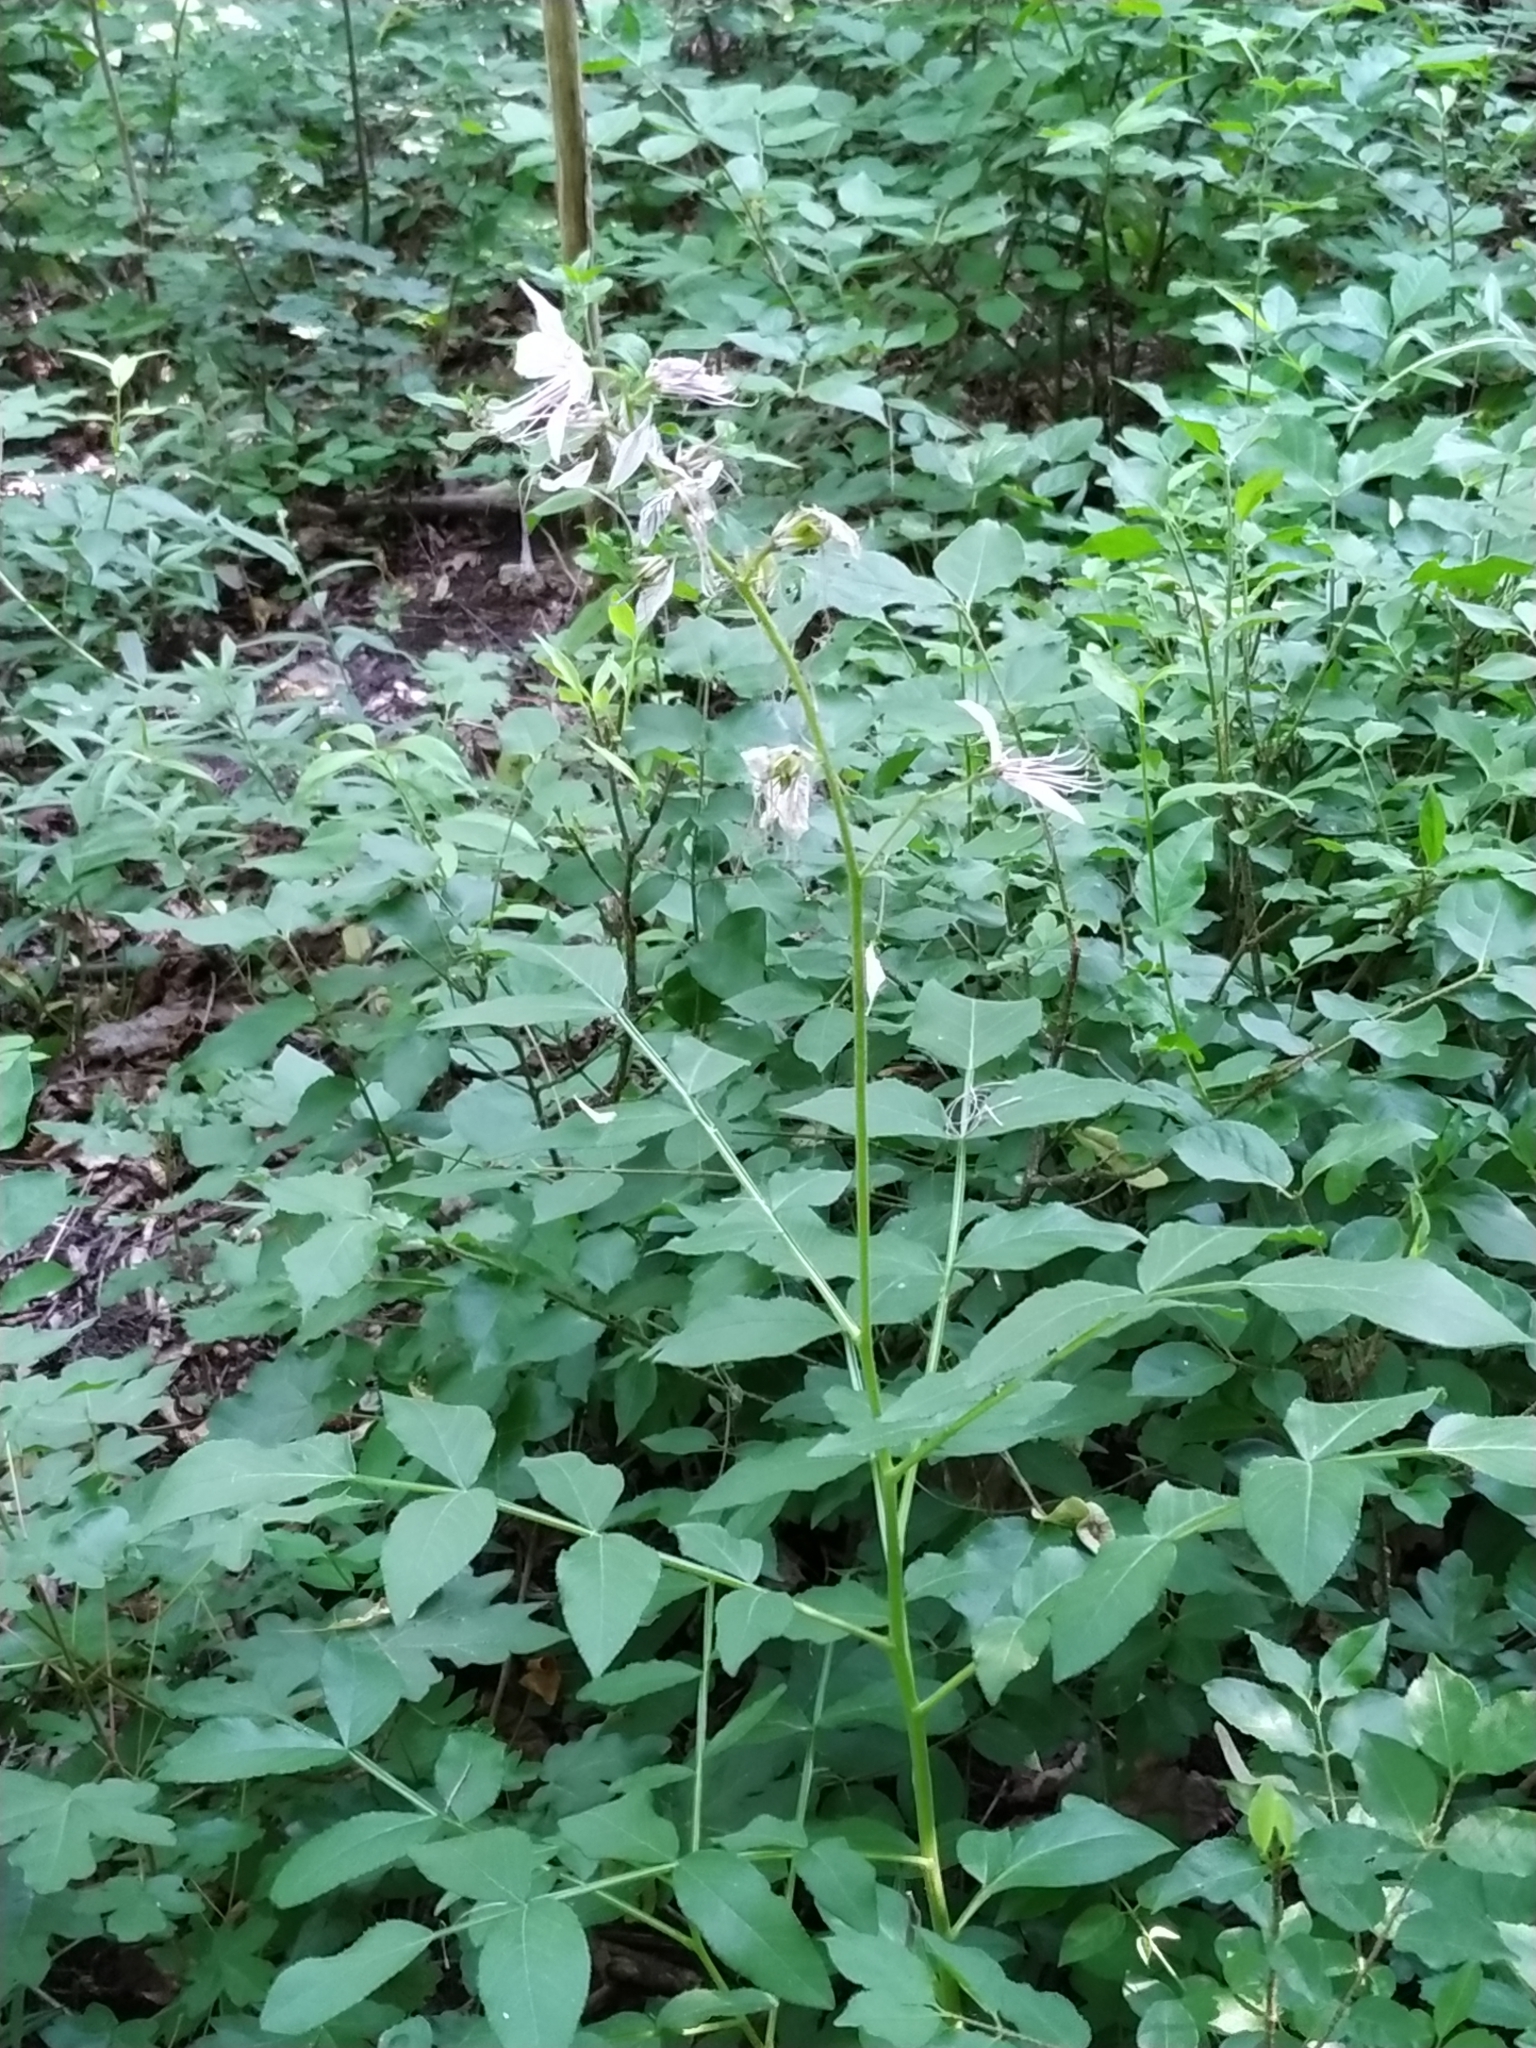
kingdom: Plantae
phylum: Tracheophyta
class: Magnoliopsida
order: Sapindales
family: Rutaceae
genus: Dictamnus
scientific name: Dictamnus albus
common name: Gasplant
